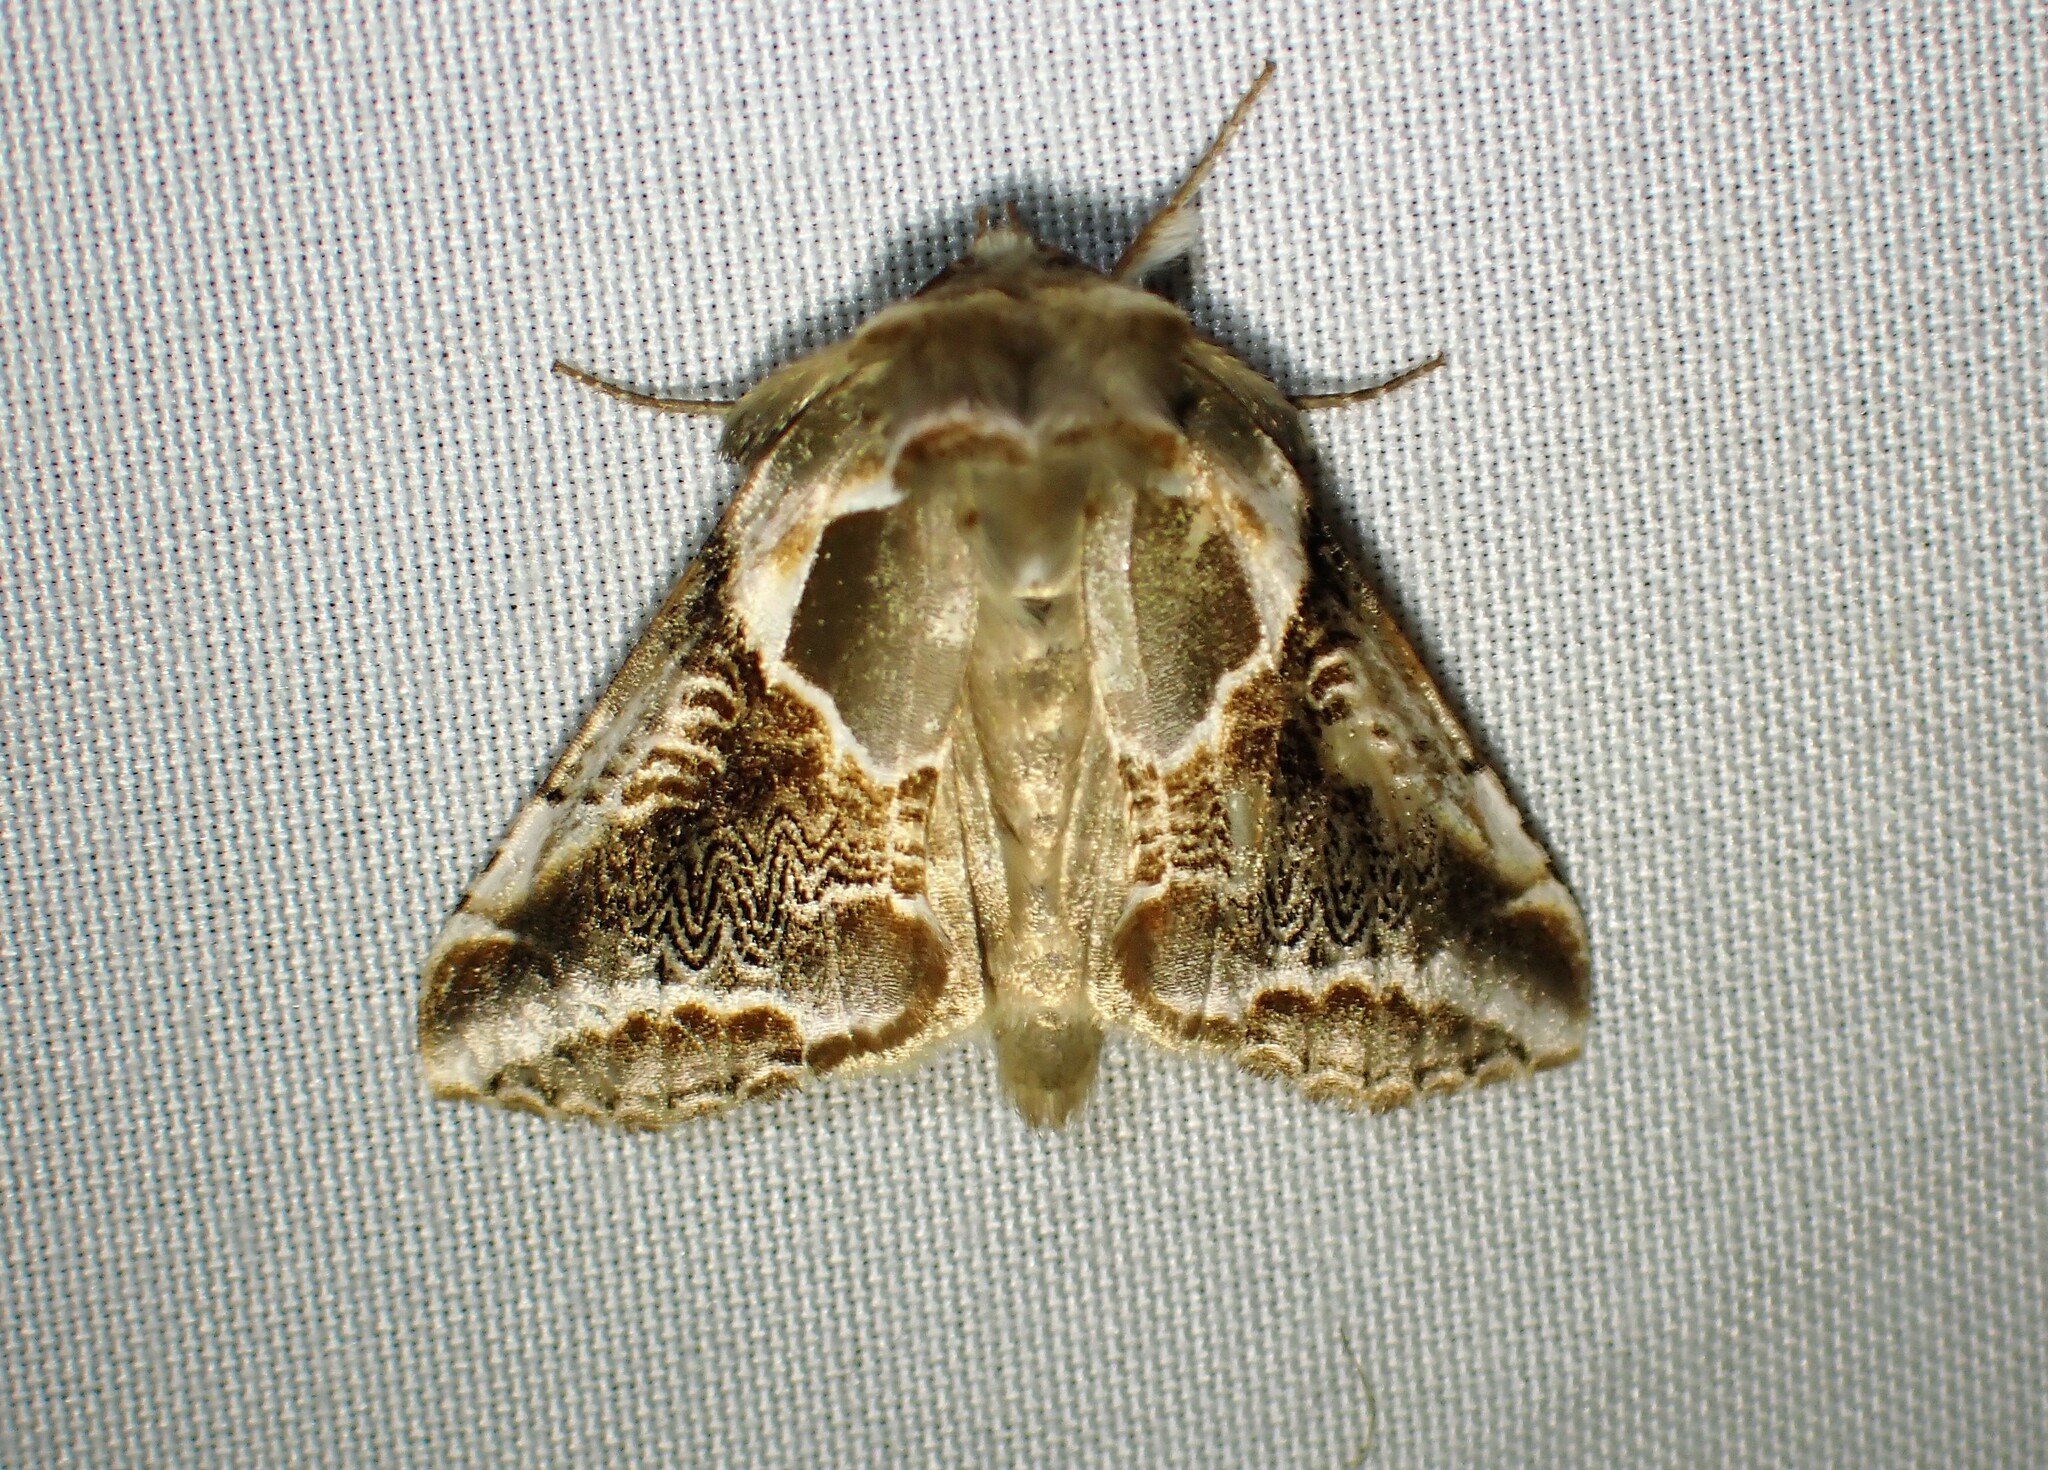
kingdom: Animalia
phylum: Arthropoda
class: Insecta
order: Lepidoptera
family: Drepanidae
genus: Habrosyne
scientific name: Habrosyne scripta
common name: Lettered habrosyne moth
